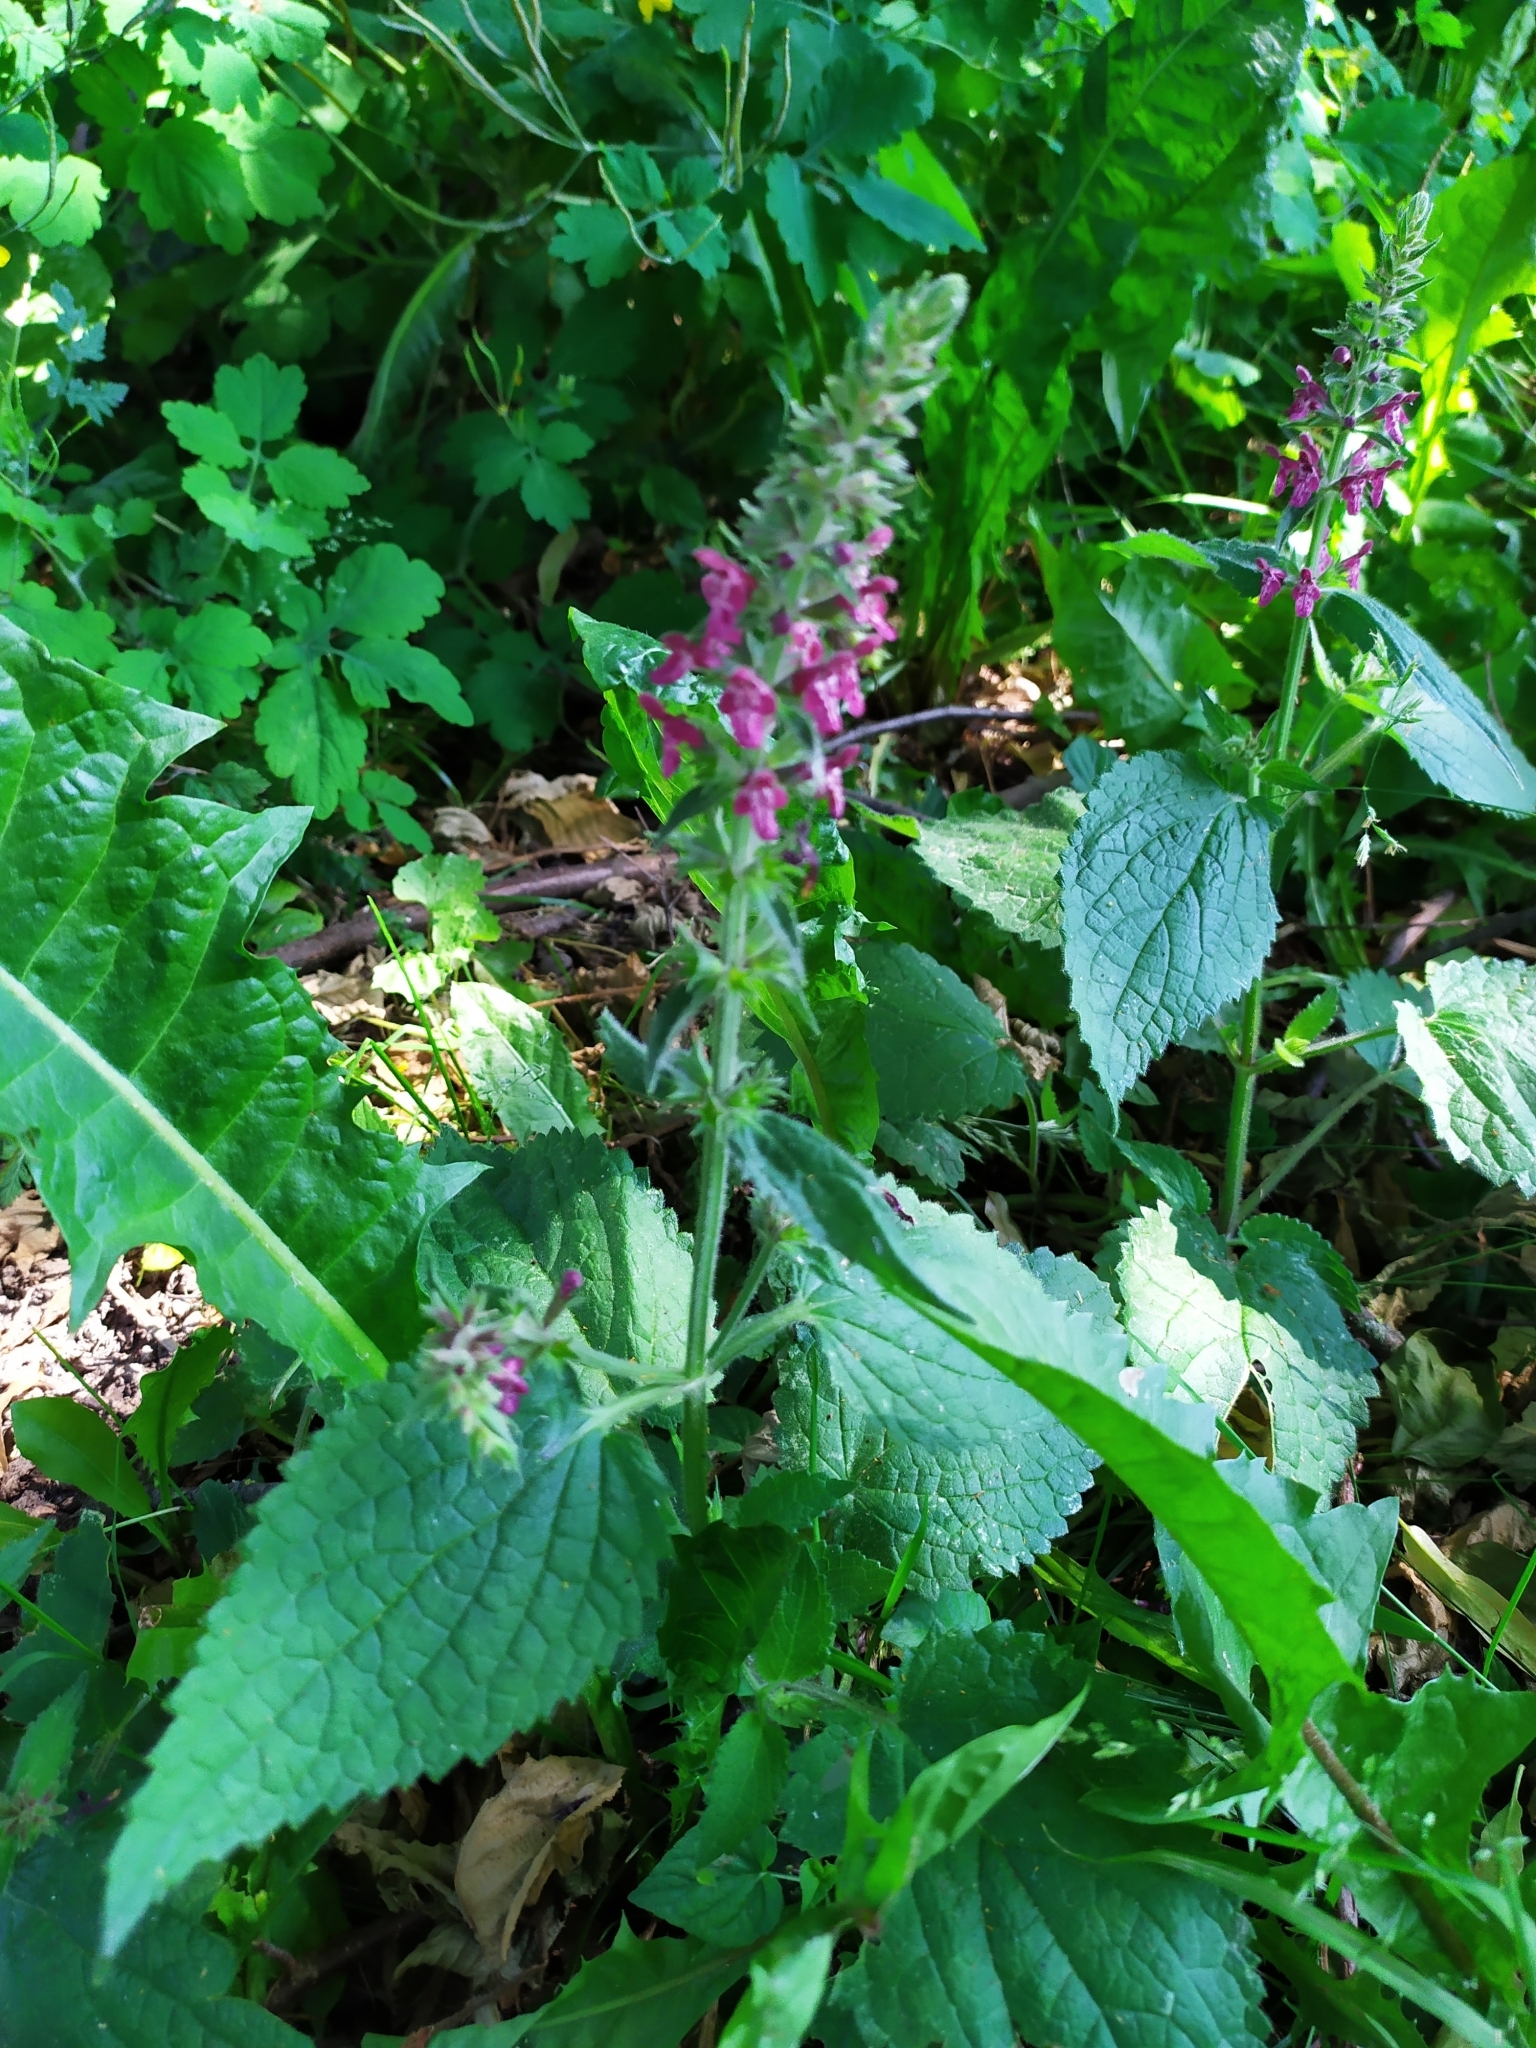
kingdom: Plantae
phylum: Tracheophyta
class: Magnoliopsida
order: Lamiales
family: Lamiaceae
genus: Stachys
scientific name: Stachys sylvatica
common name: Hedge woundwort
